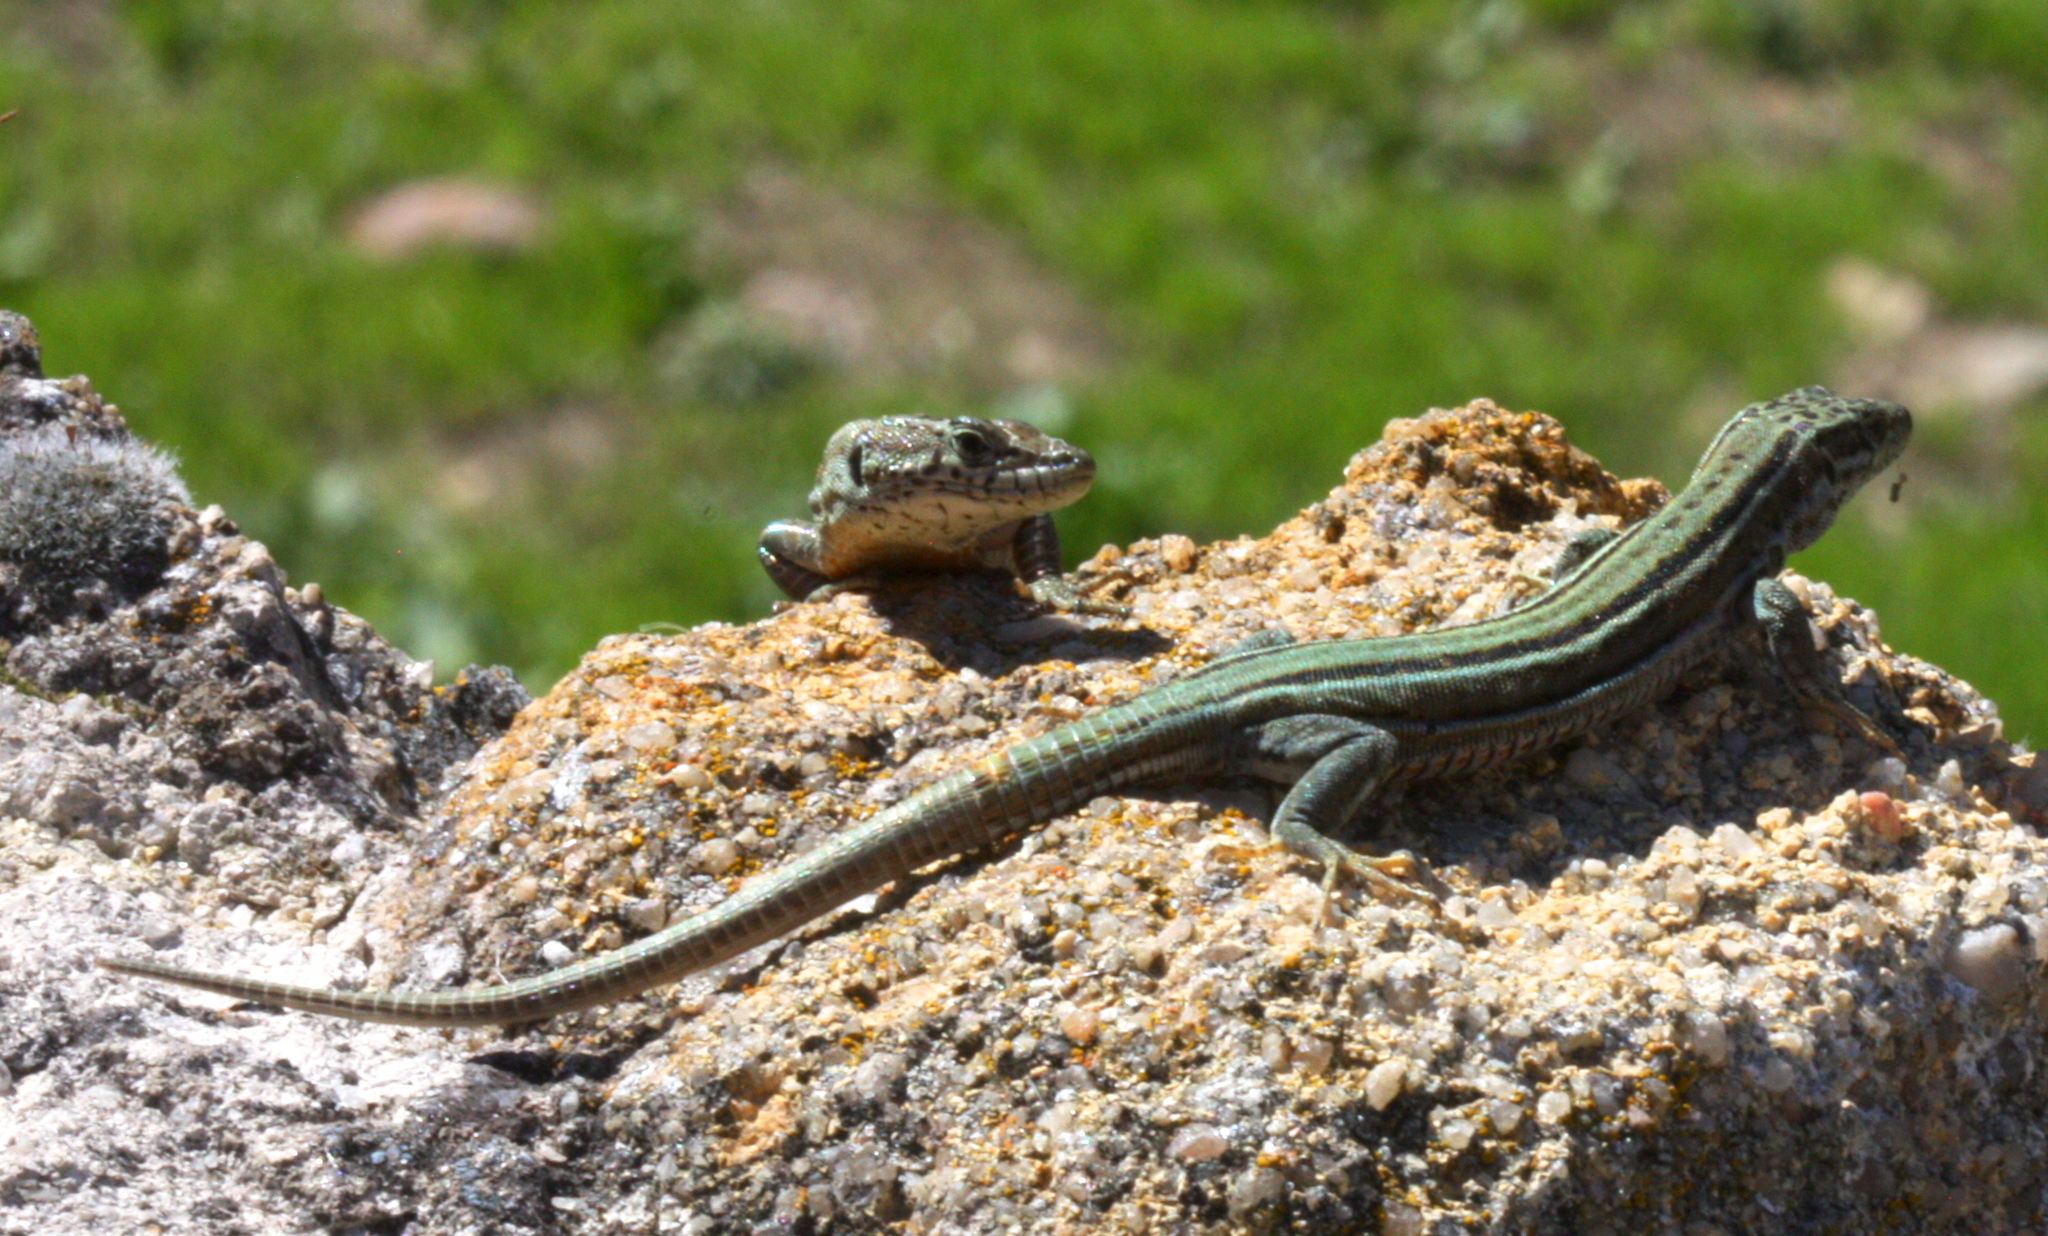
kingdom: Animalia
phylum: Chordata
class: Squamata
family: Lacertidae
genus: Podarcis
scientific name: Podarcis guadarramae
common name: Guadarrama wall lizard
